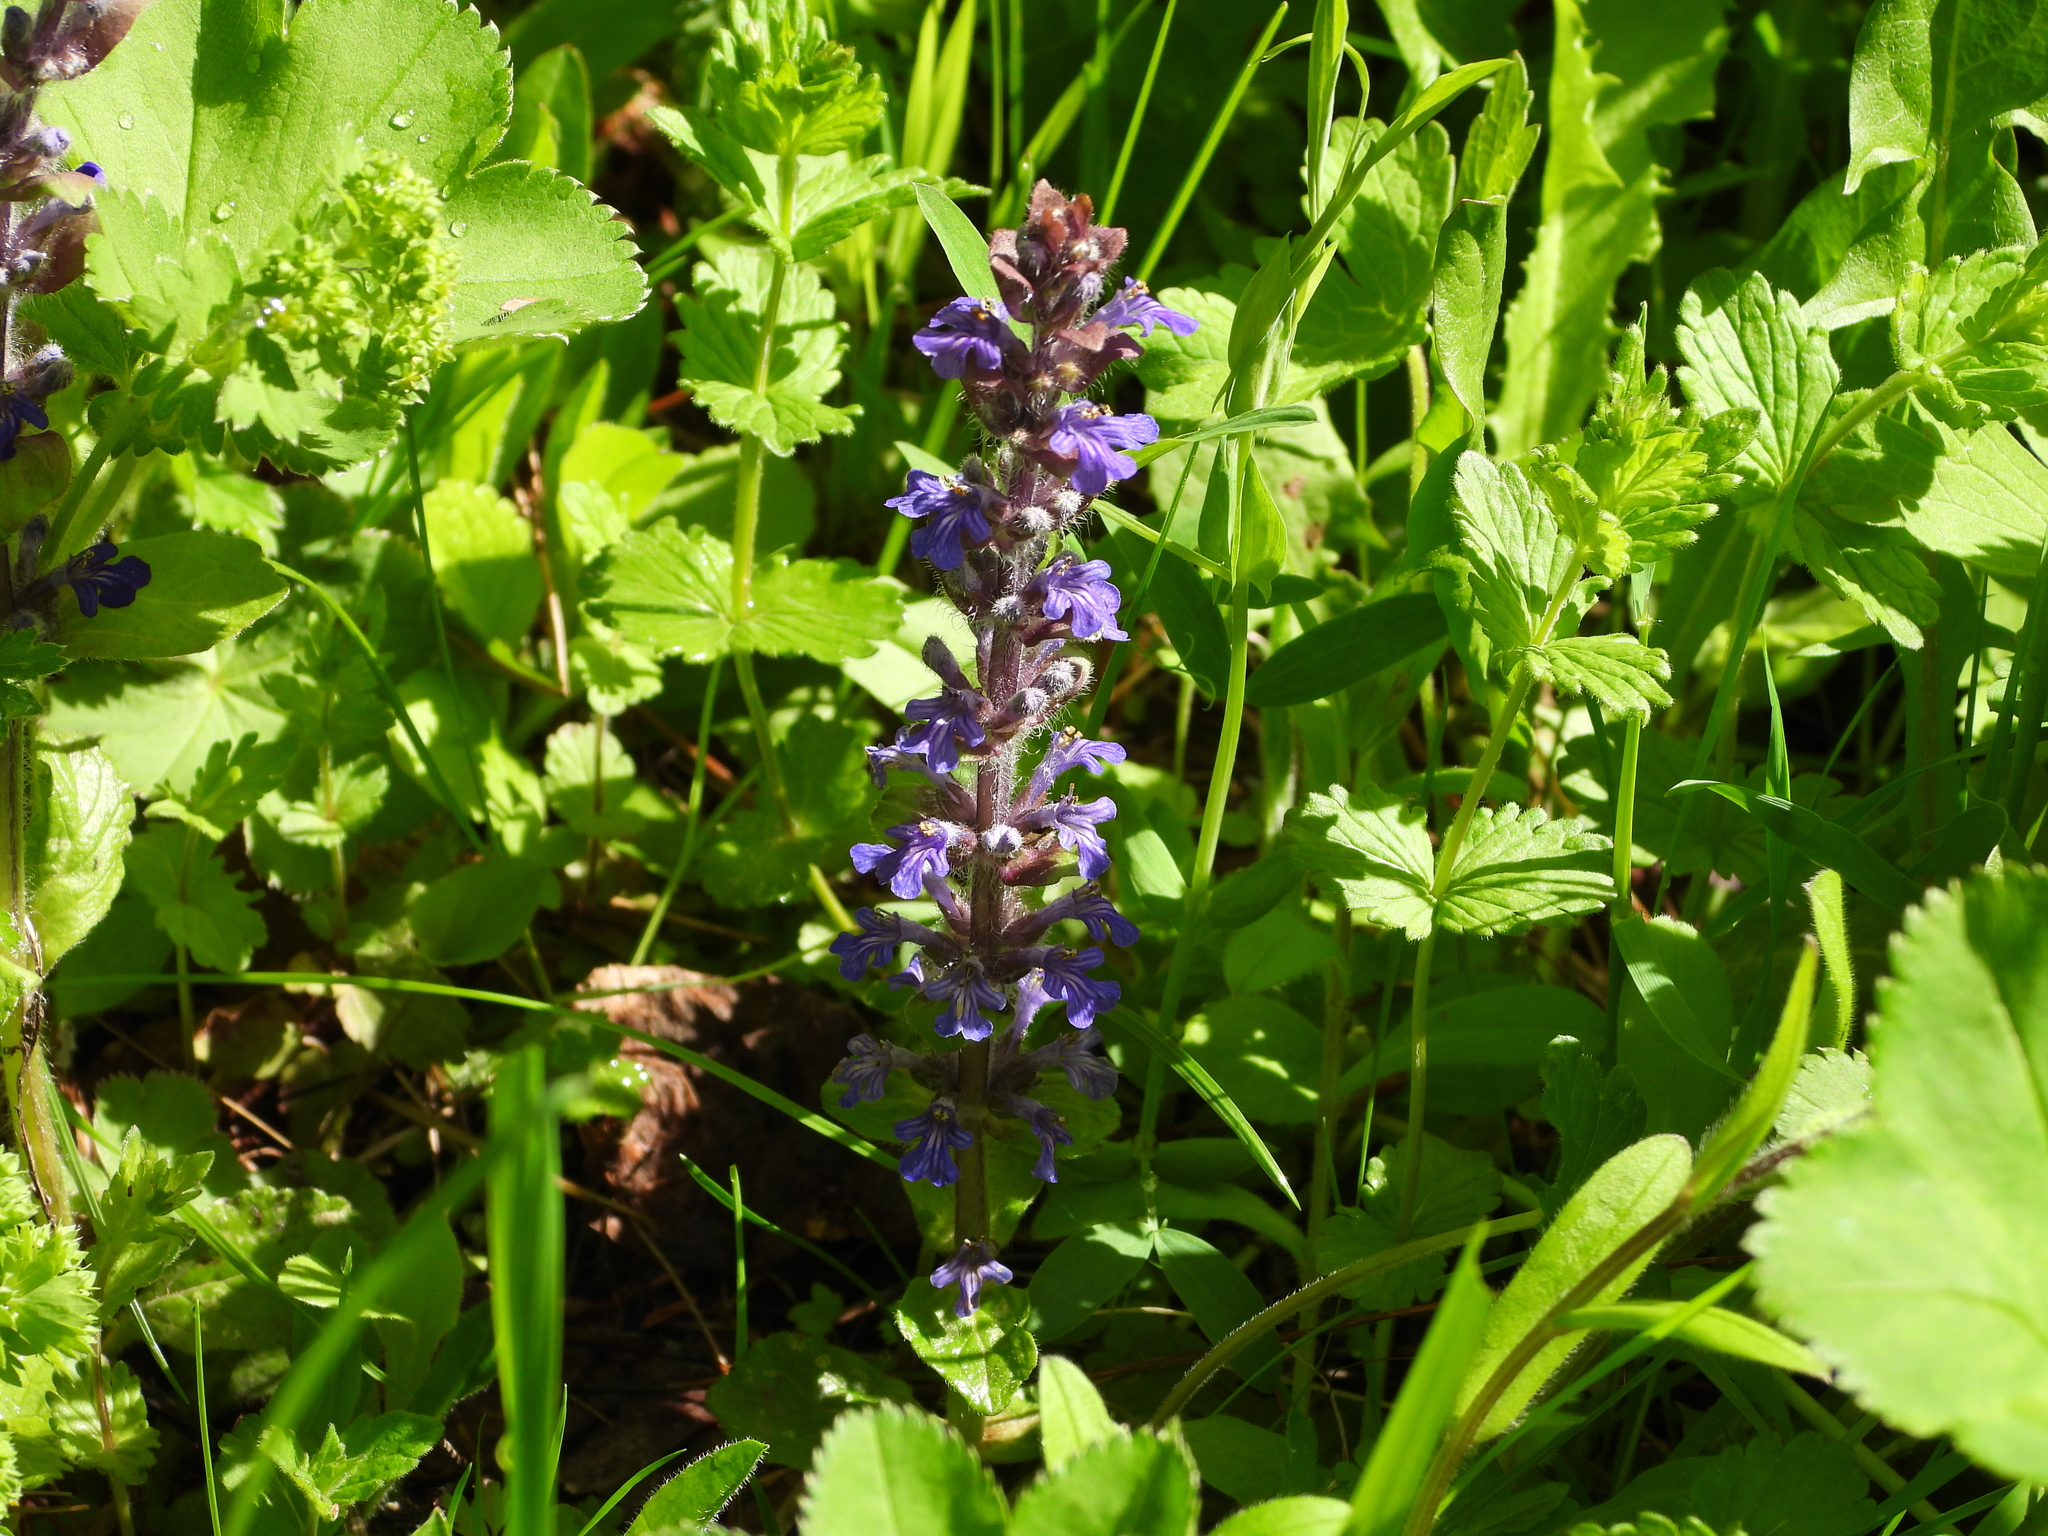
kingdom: Plantae
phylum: Tracheophyta
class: Magnoliopsida
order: Lamiales
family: Lamiaceae
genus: Ajuga
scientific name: Ajuga reptans
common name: Bugle
